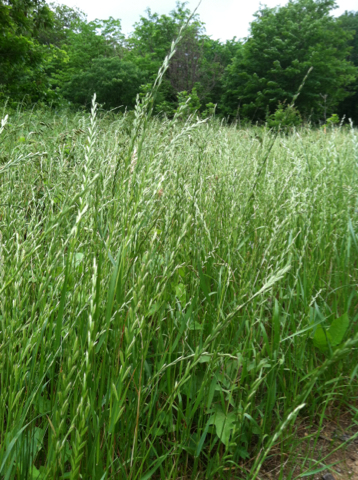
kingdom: Plantae
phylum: Tracheophyta
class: Liliopsida
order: Poales
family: Poaceae
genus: Lolium
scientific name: Lolium perenne
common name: Perennial ryegrass
